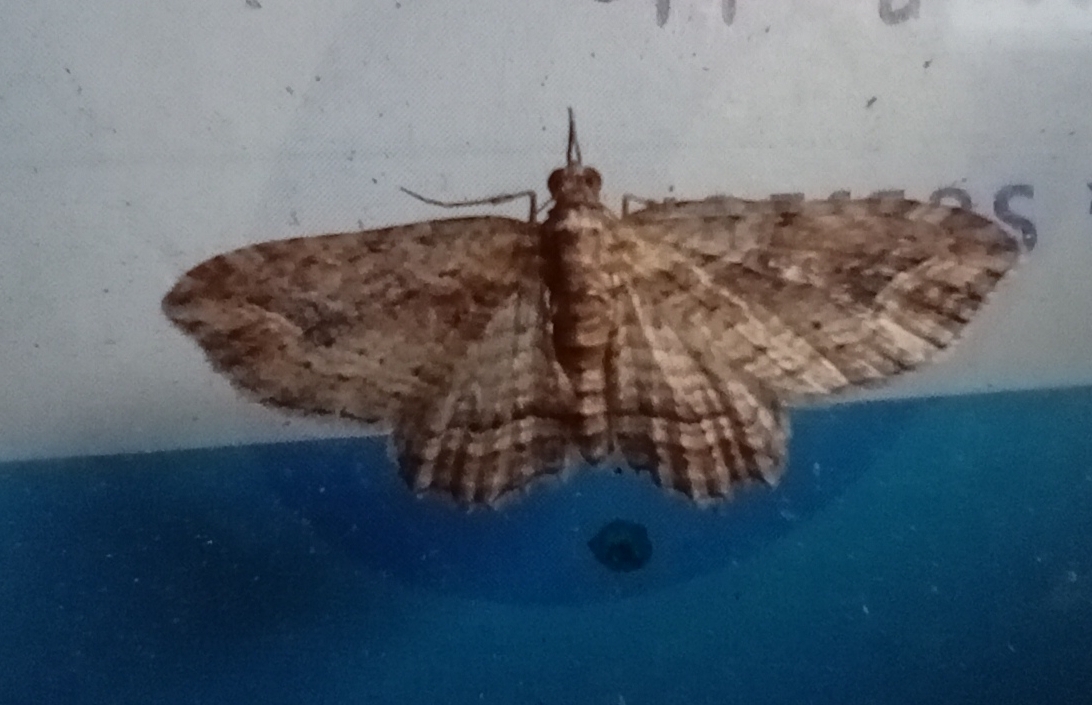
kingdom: Animalia
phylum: Arthropoda
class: Insecta
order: Lepidoptera
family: Geometridae
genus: Chloroclystis
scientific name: Chloroclystis filata
